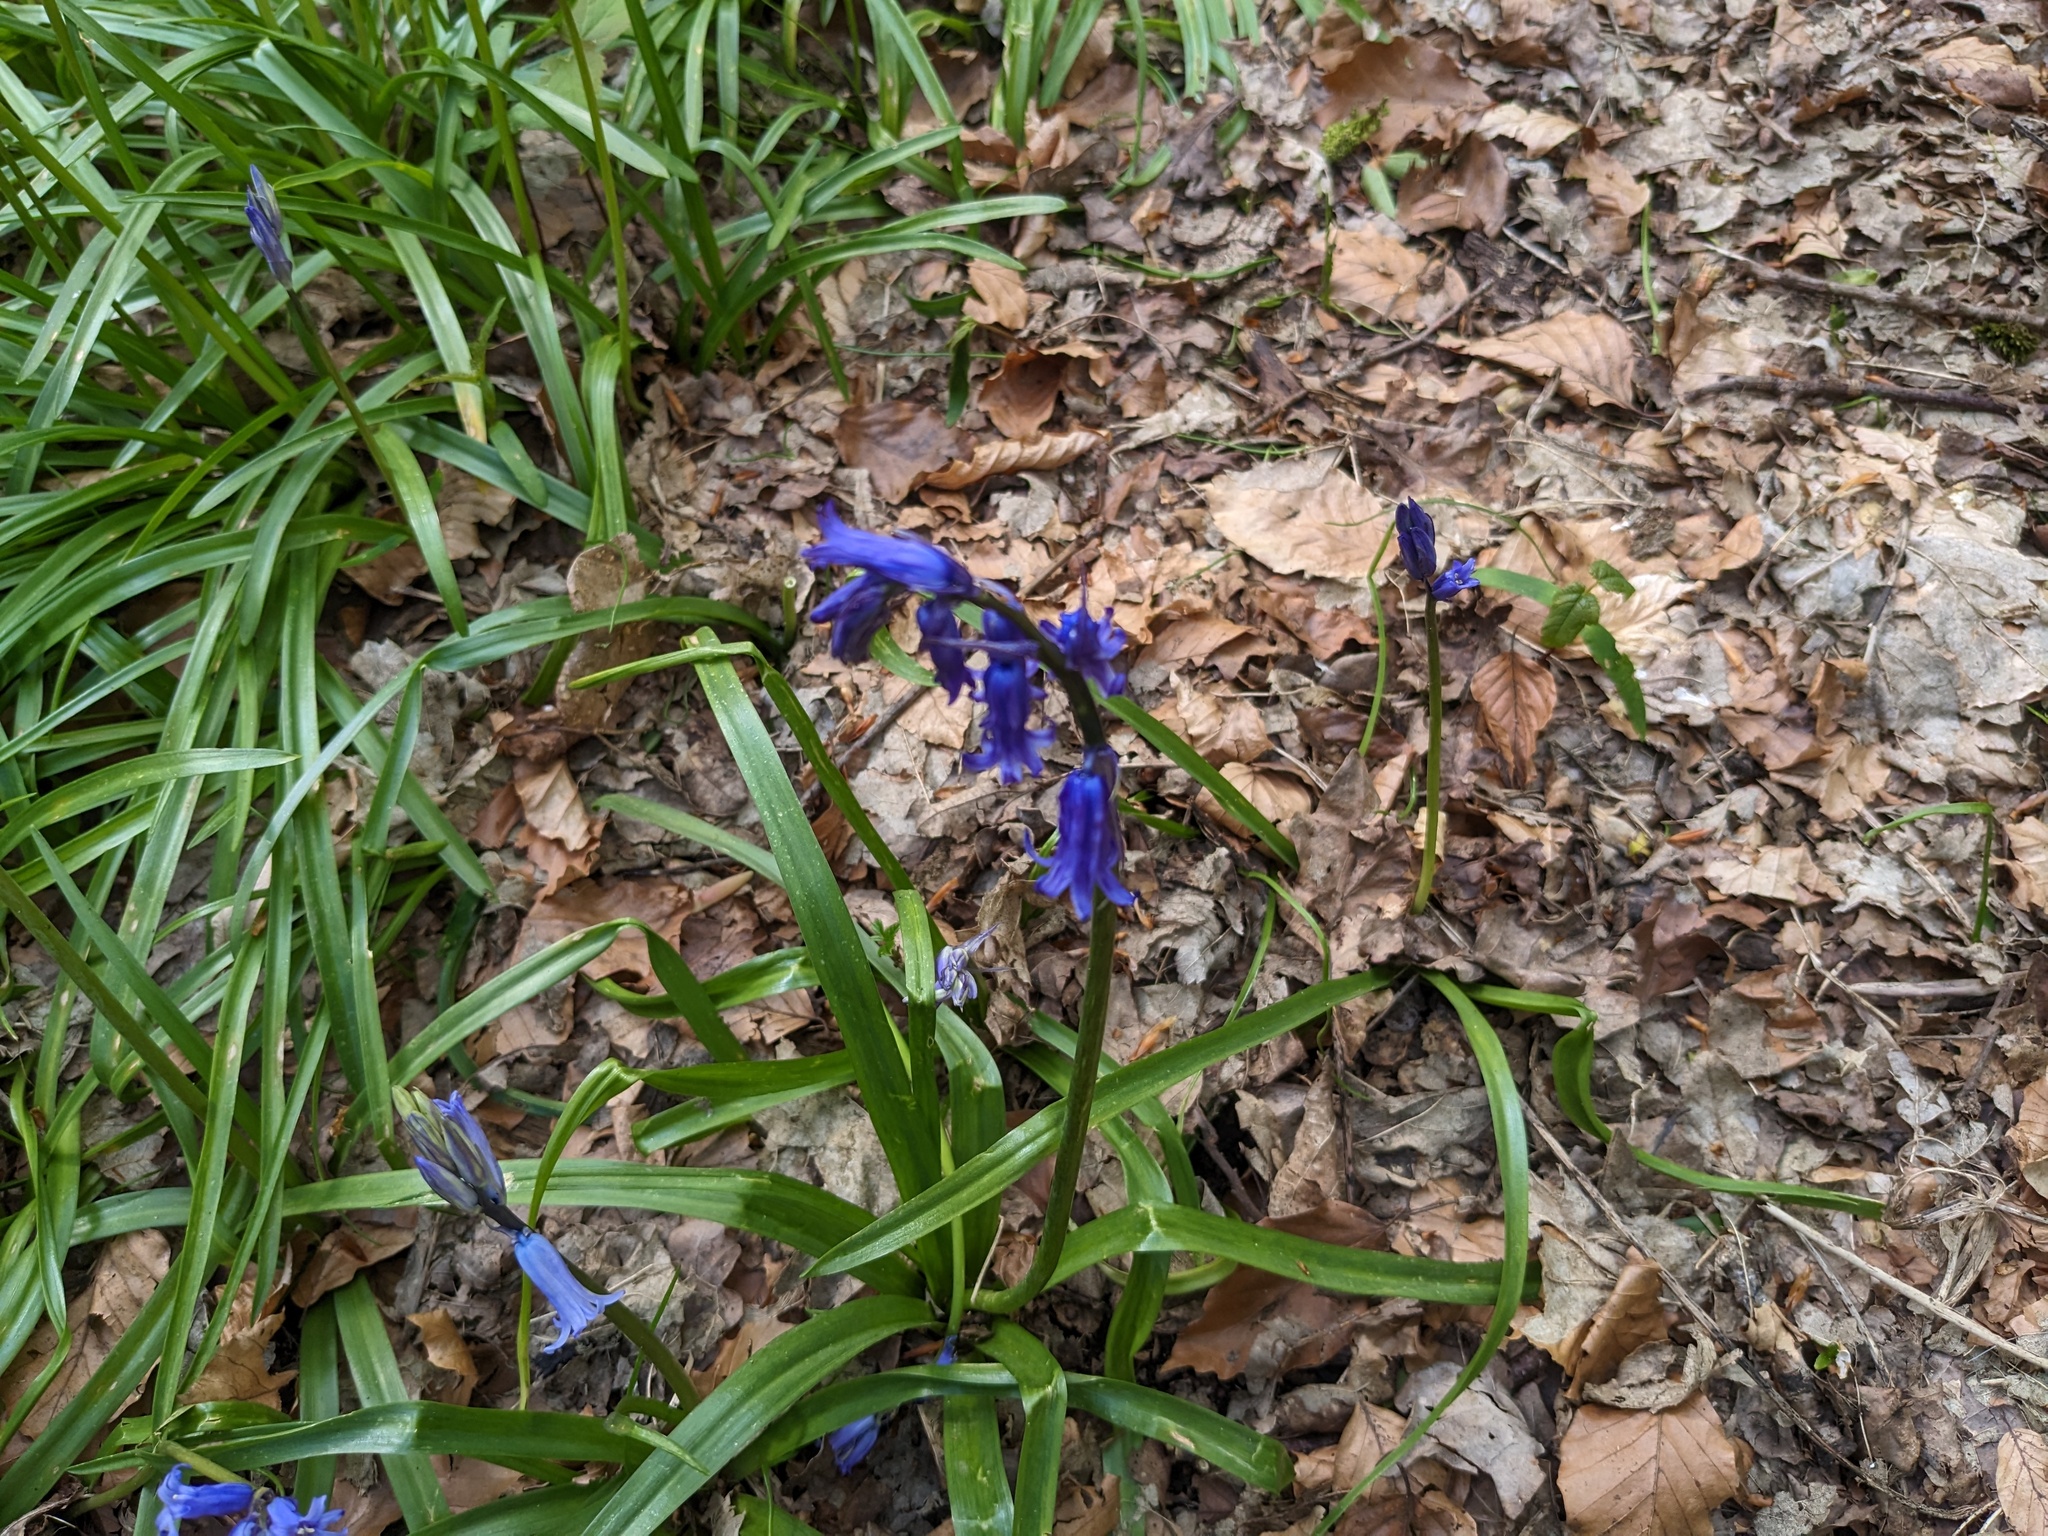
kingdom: Plantae
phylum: Tracheophyta
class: Liliopsida
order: Asparagales
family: Asparagaceae
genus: Hyacinthoides
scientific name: Hyacinthoides non-scripta
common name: Bluebell
